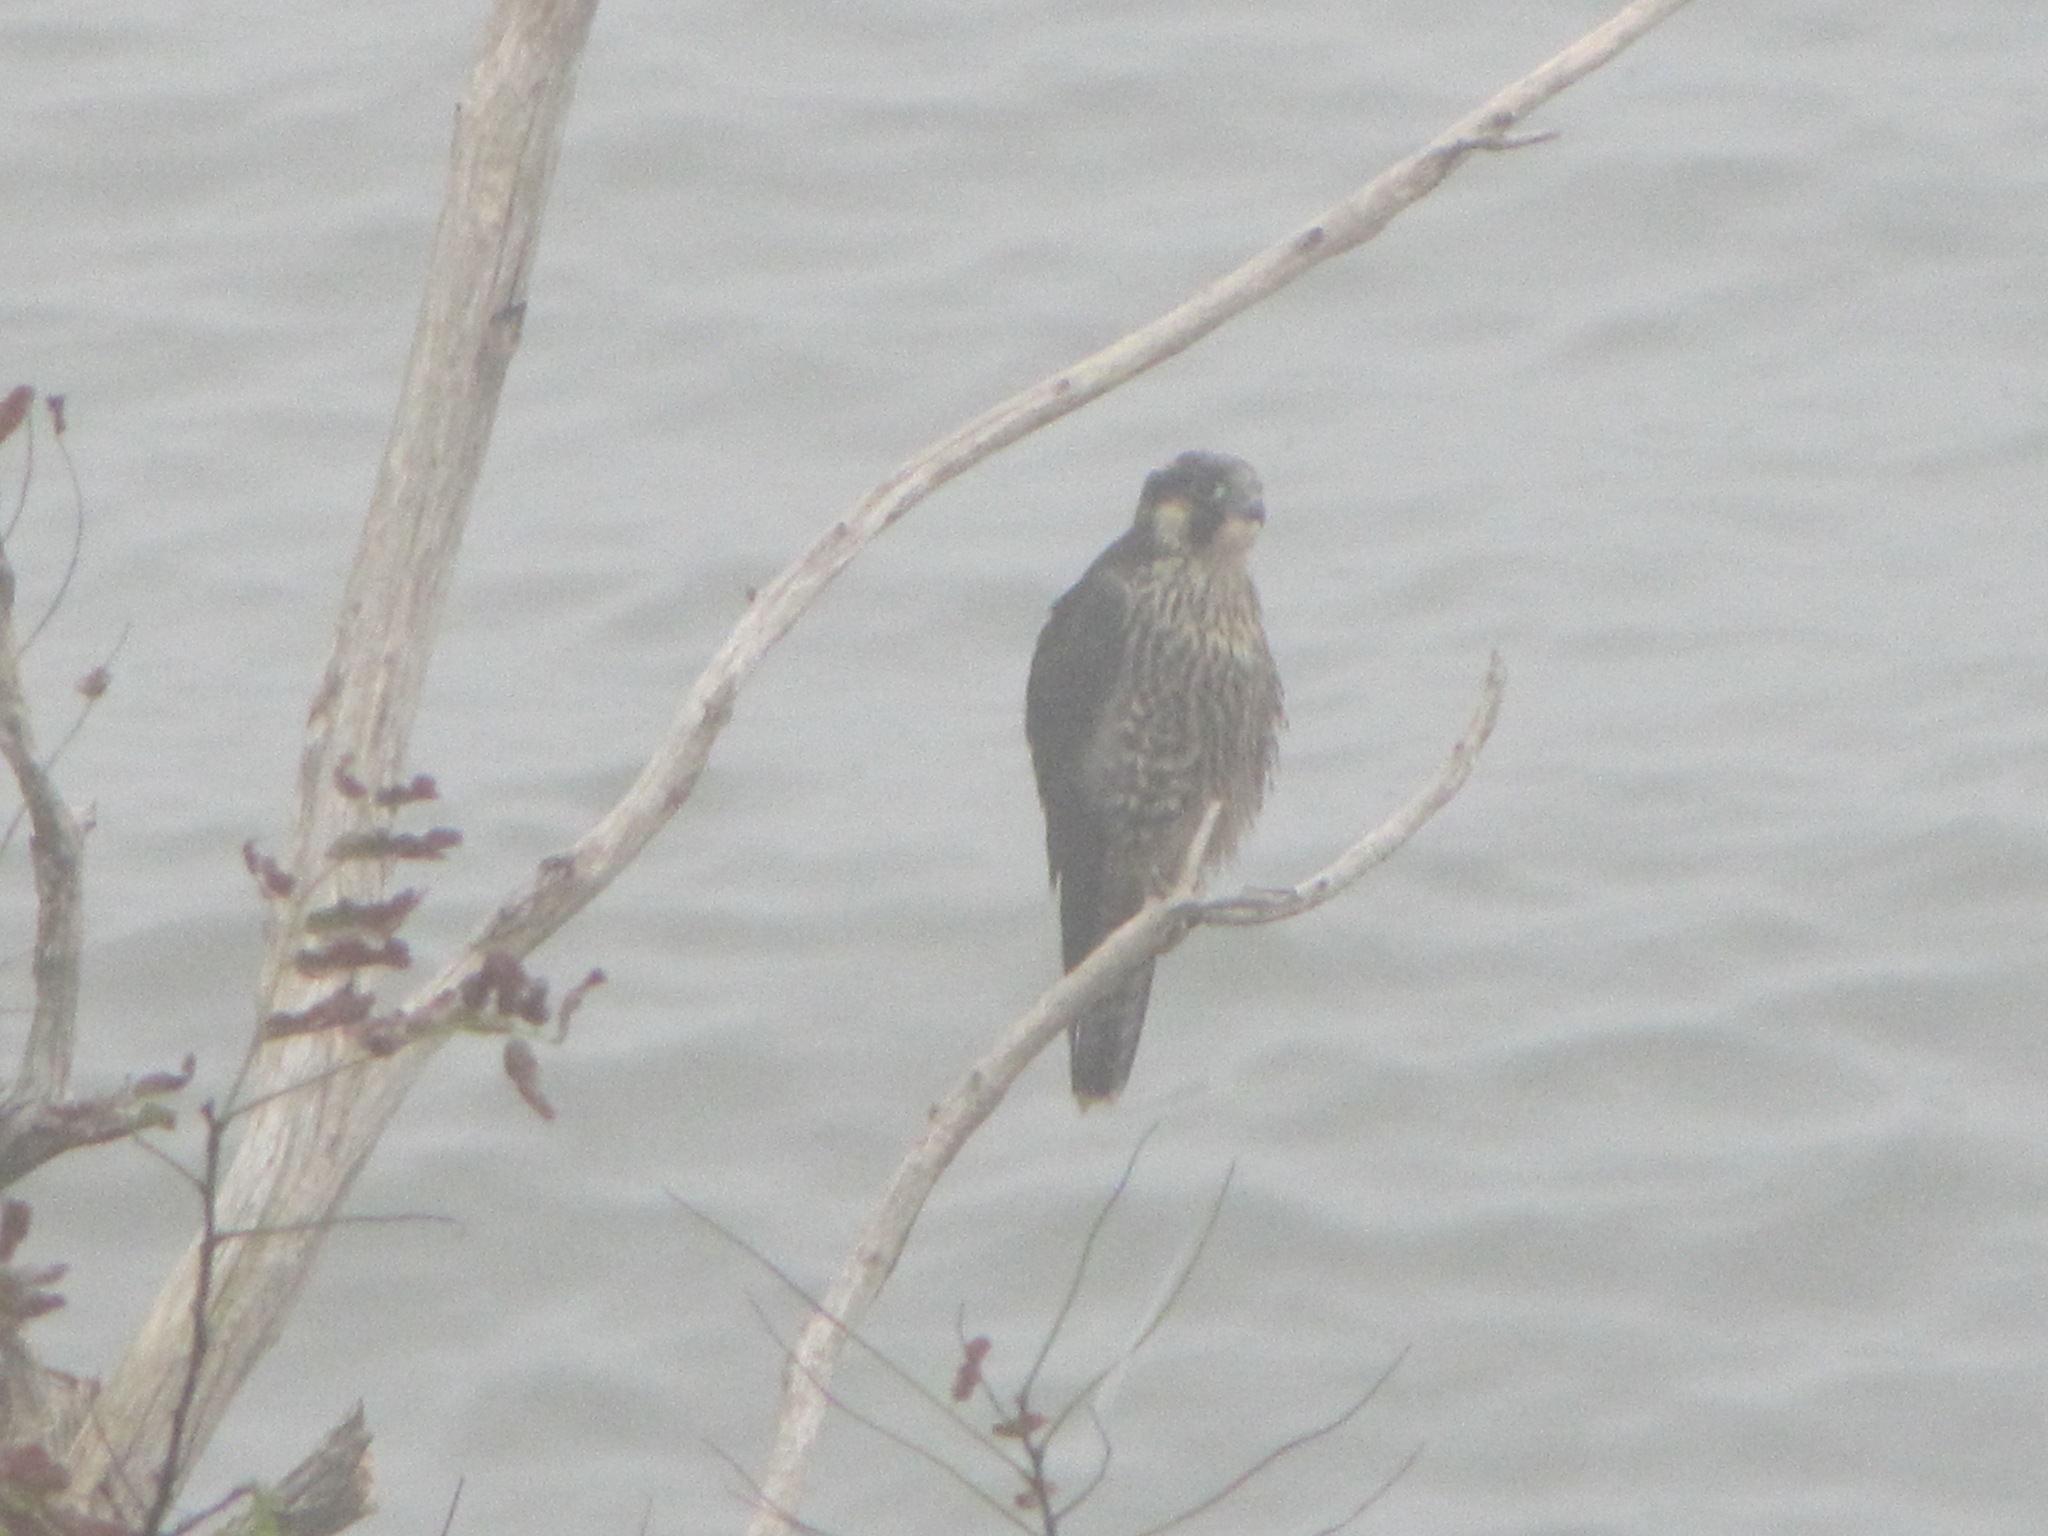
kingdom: Animalia
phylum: Chordata
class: Aves
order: Falconiformes
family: Falconidae
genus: Falco
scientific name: Falco peregrinus
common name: Peregrine falcon
